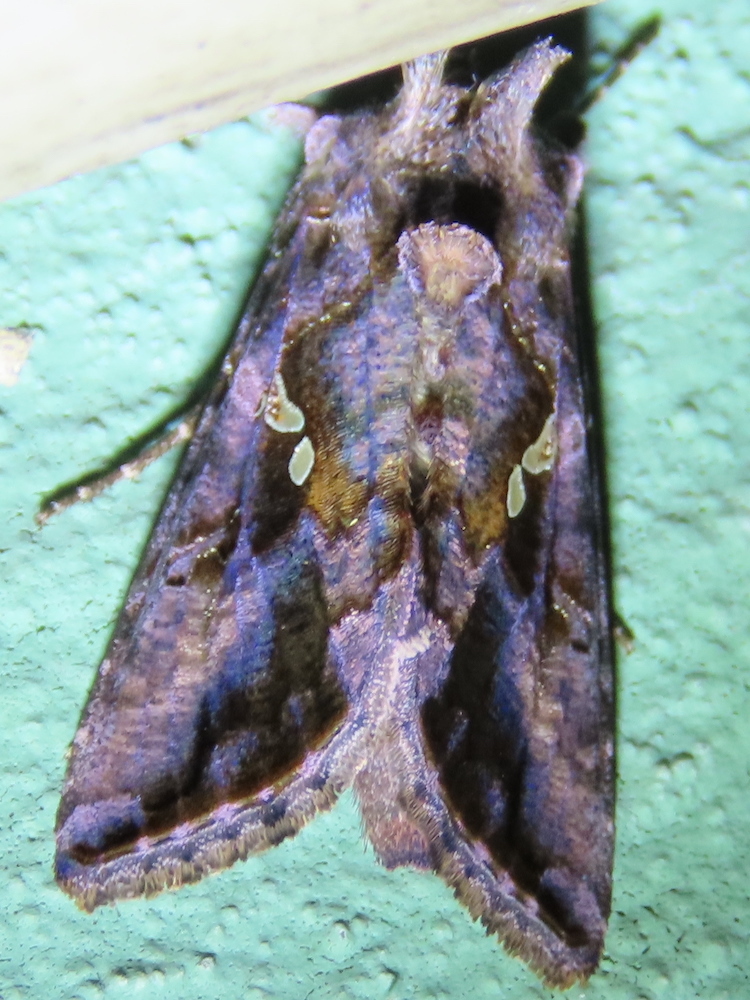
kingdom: Animalia
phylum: Arthropoda
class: Insecta
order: Lepidoptera
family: Noctuidae
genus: Autographa
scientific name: Autographa precationis
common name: Common looper moth
